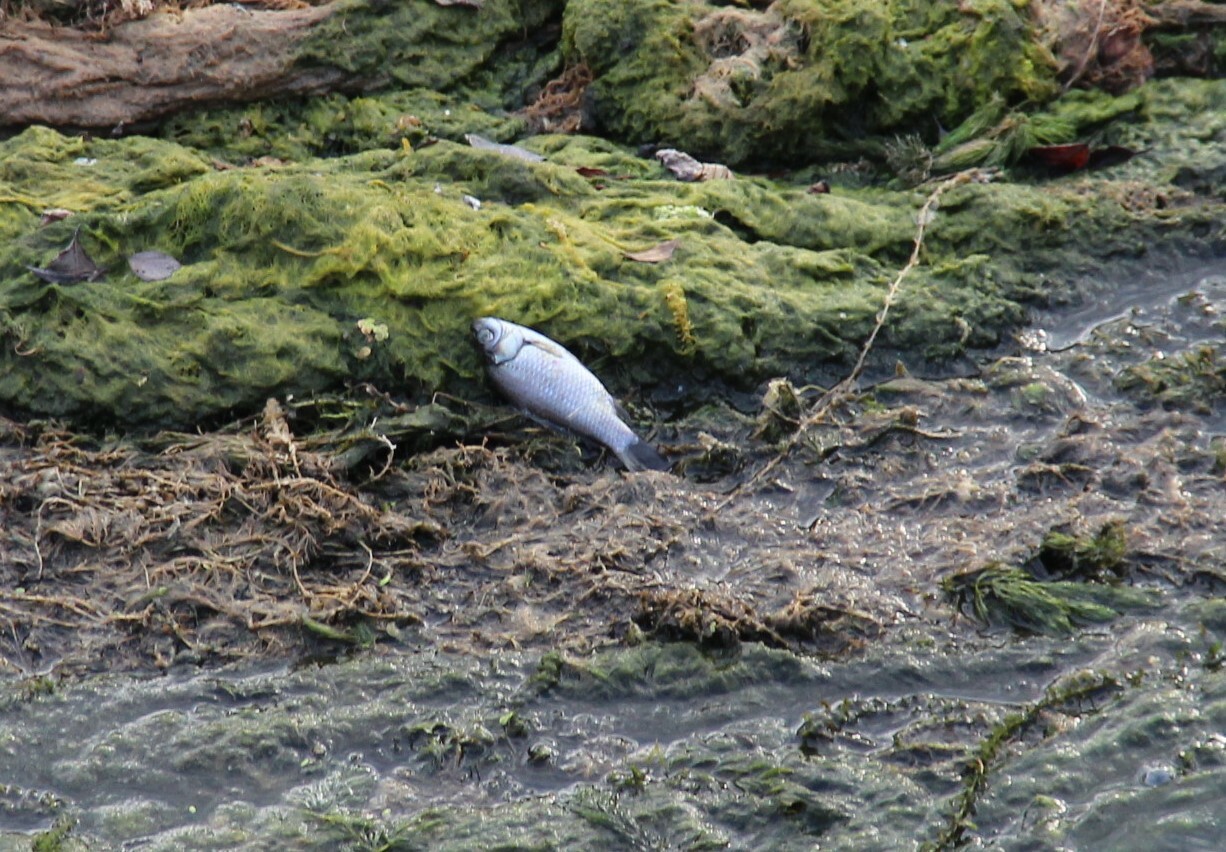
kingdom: Animalia
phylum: Chordata
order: Cypriniformes
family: Cyprinidae
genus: Carassius
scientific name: Carassius gibelio
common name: Prussian carp
